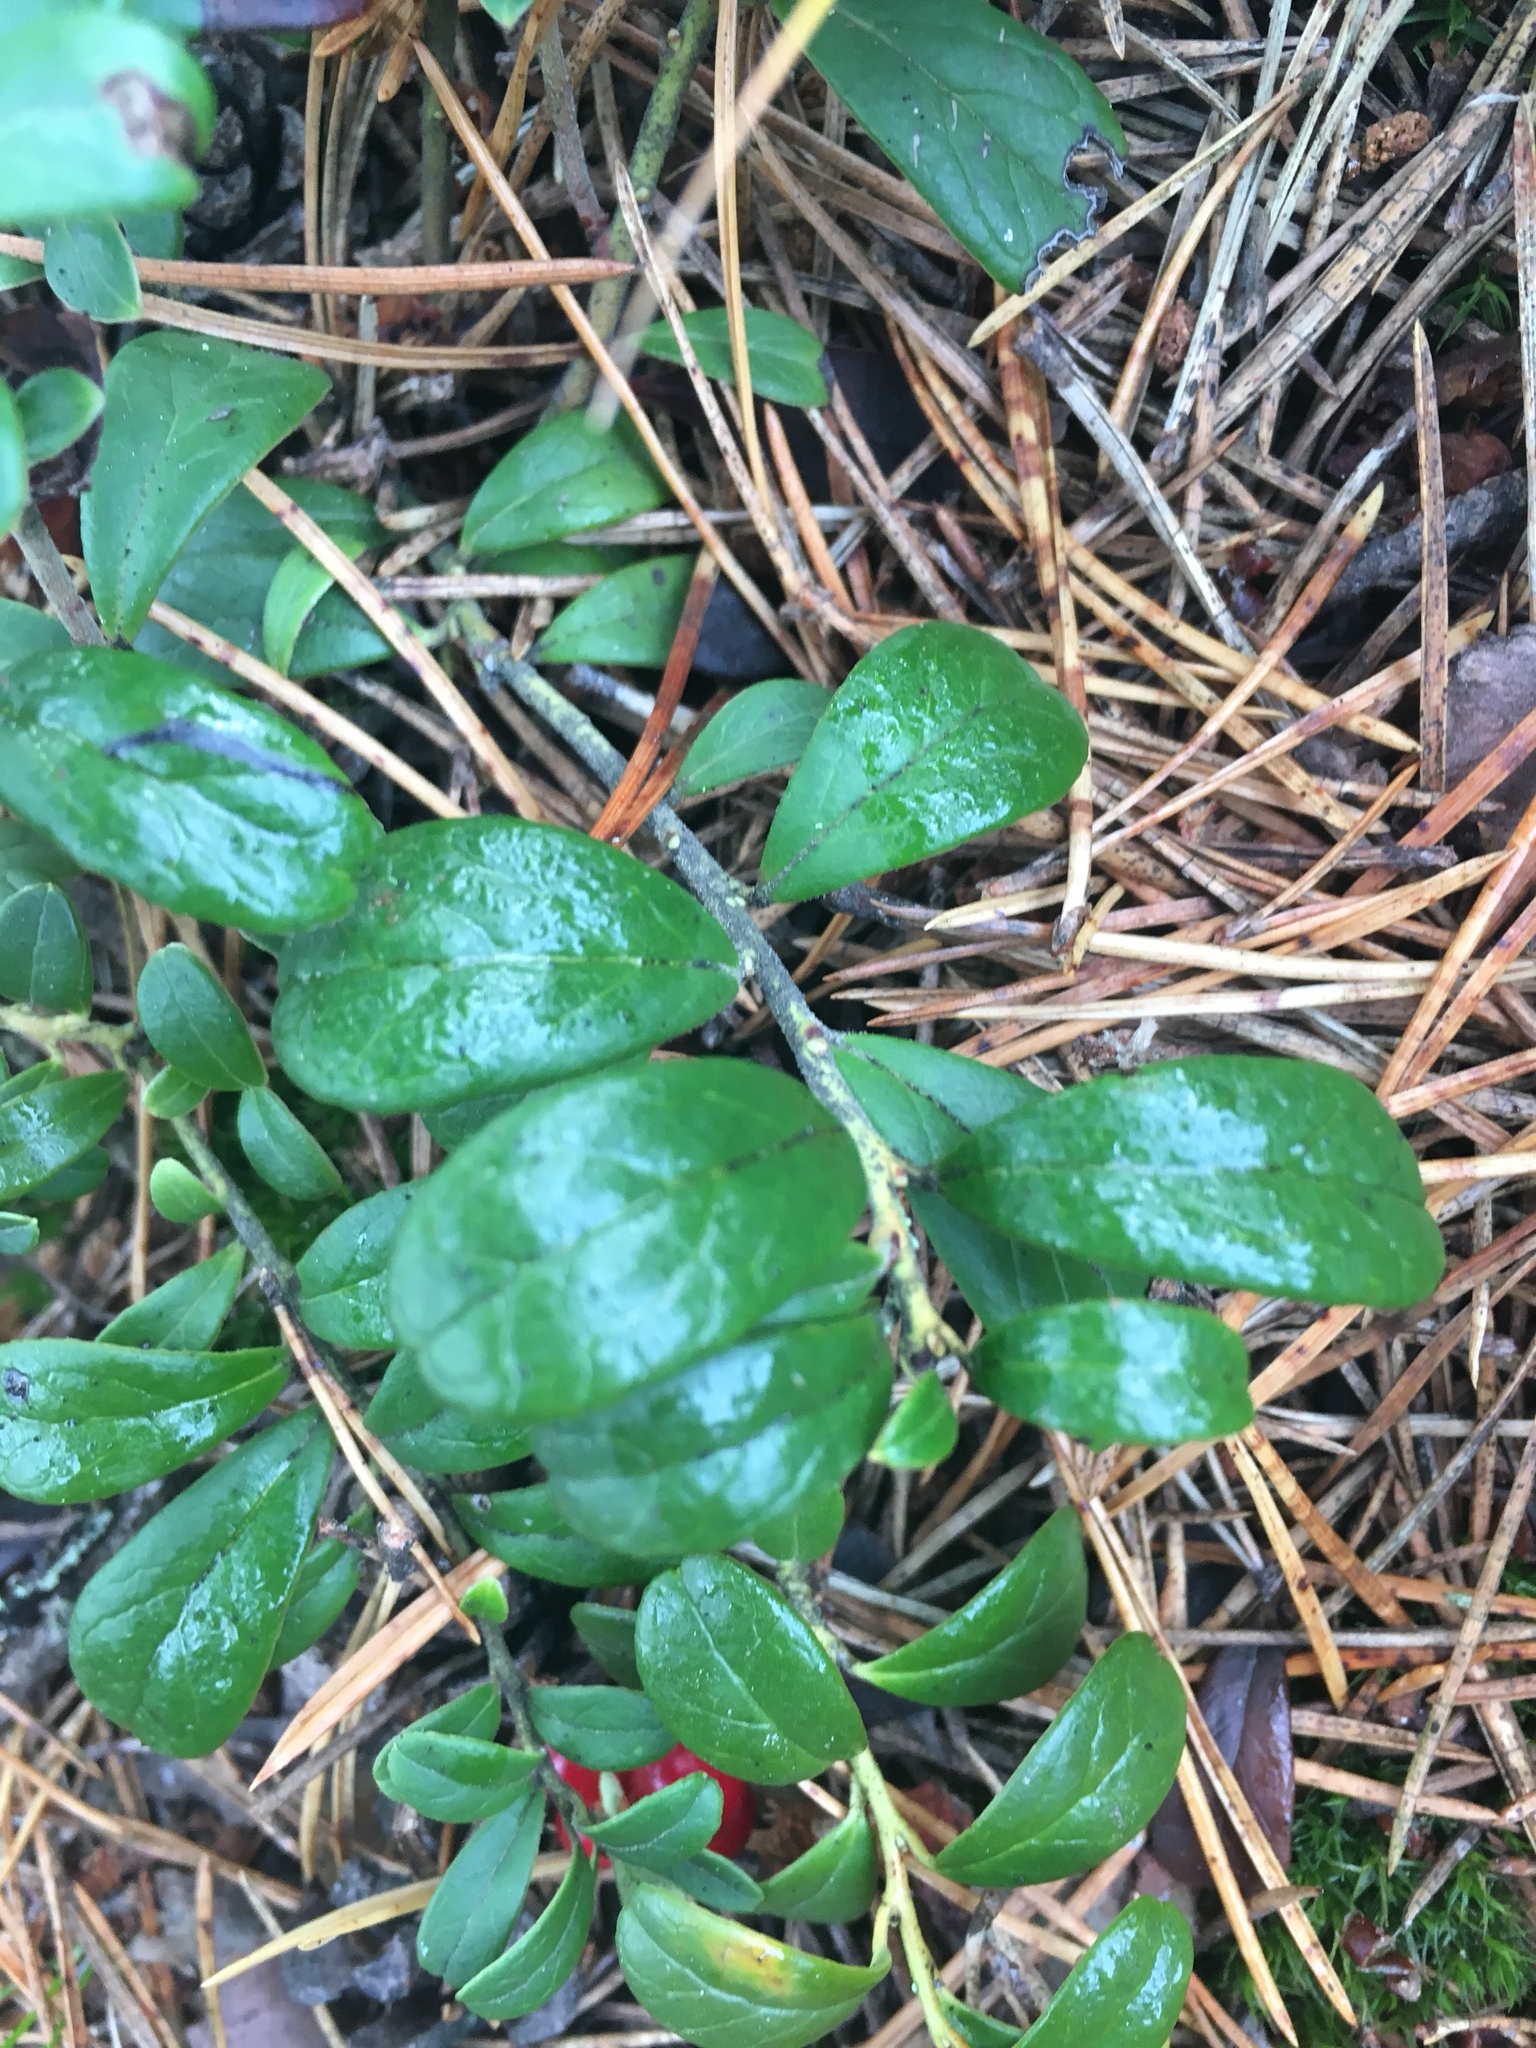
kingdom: Plantae
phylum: Tracheophyta
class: Magnoliopsida
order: Ericales
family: Ericaceae
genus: Vaccinium
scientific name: Vaccinium vitis-idaea
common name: Cowberry
